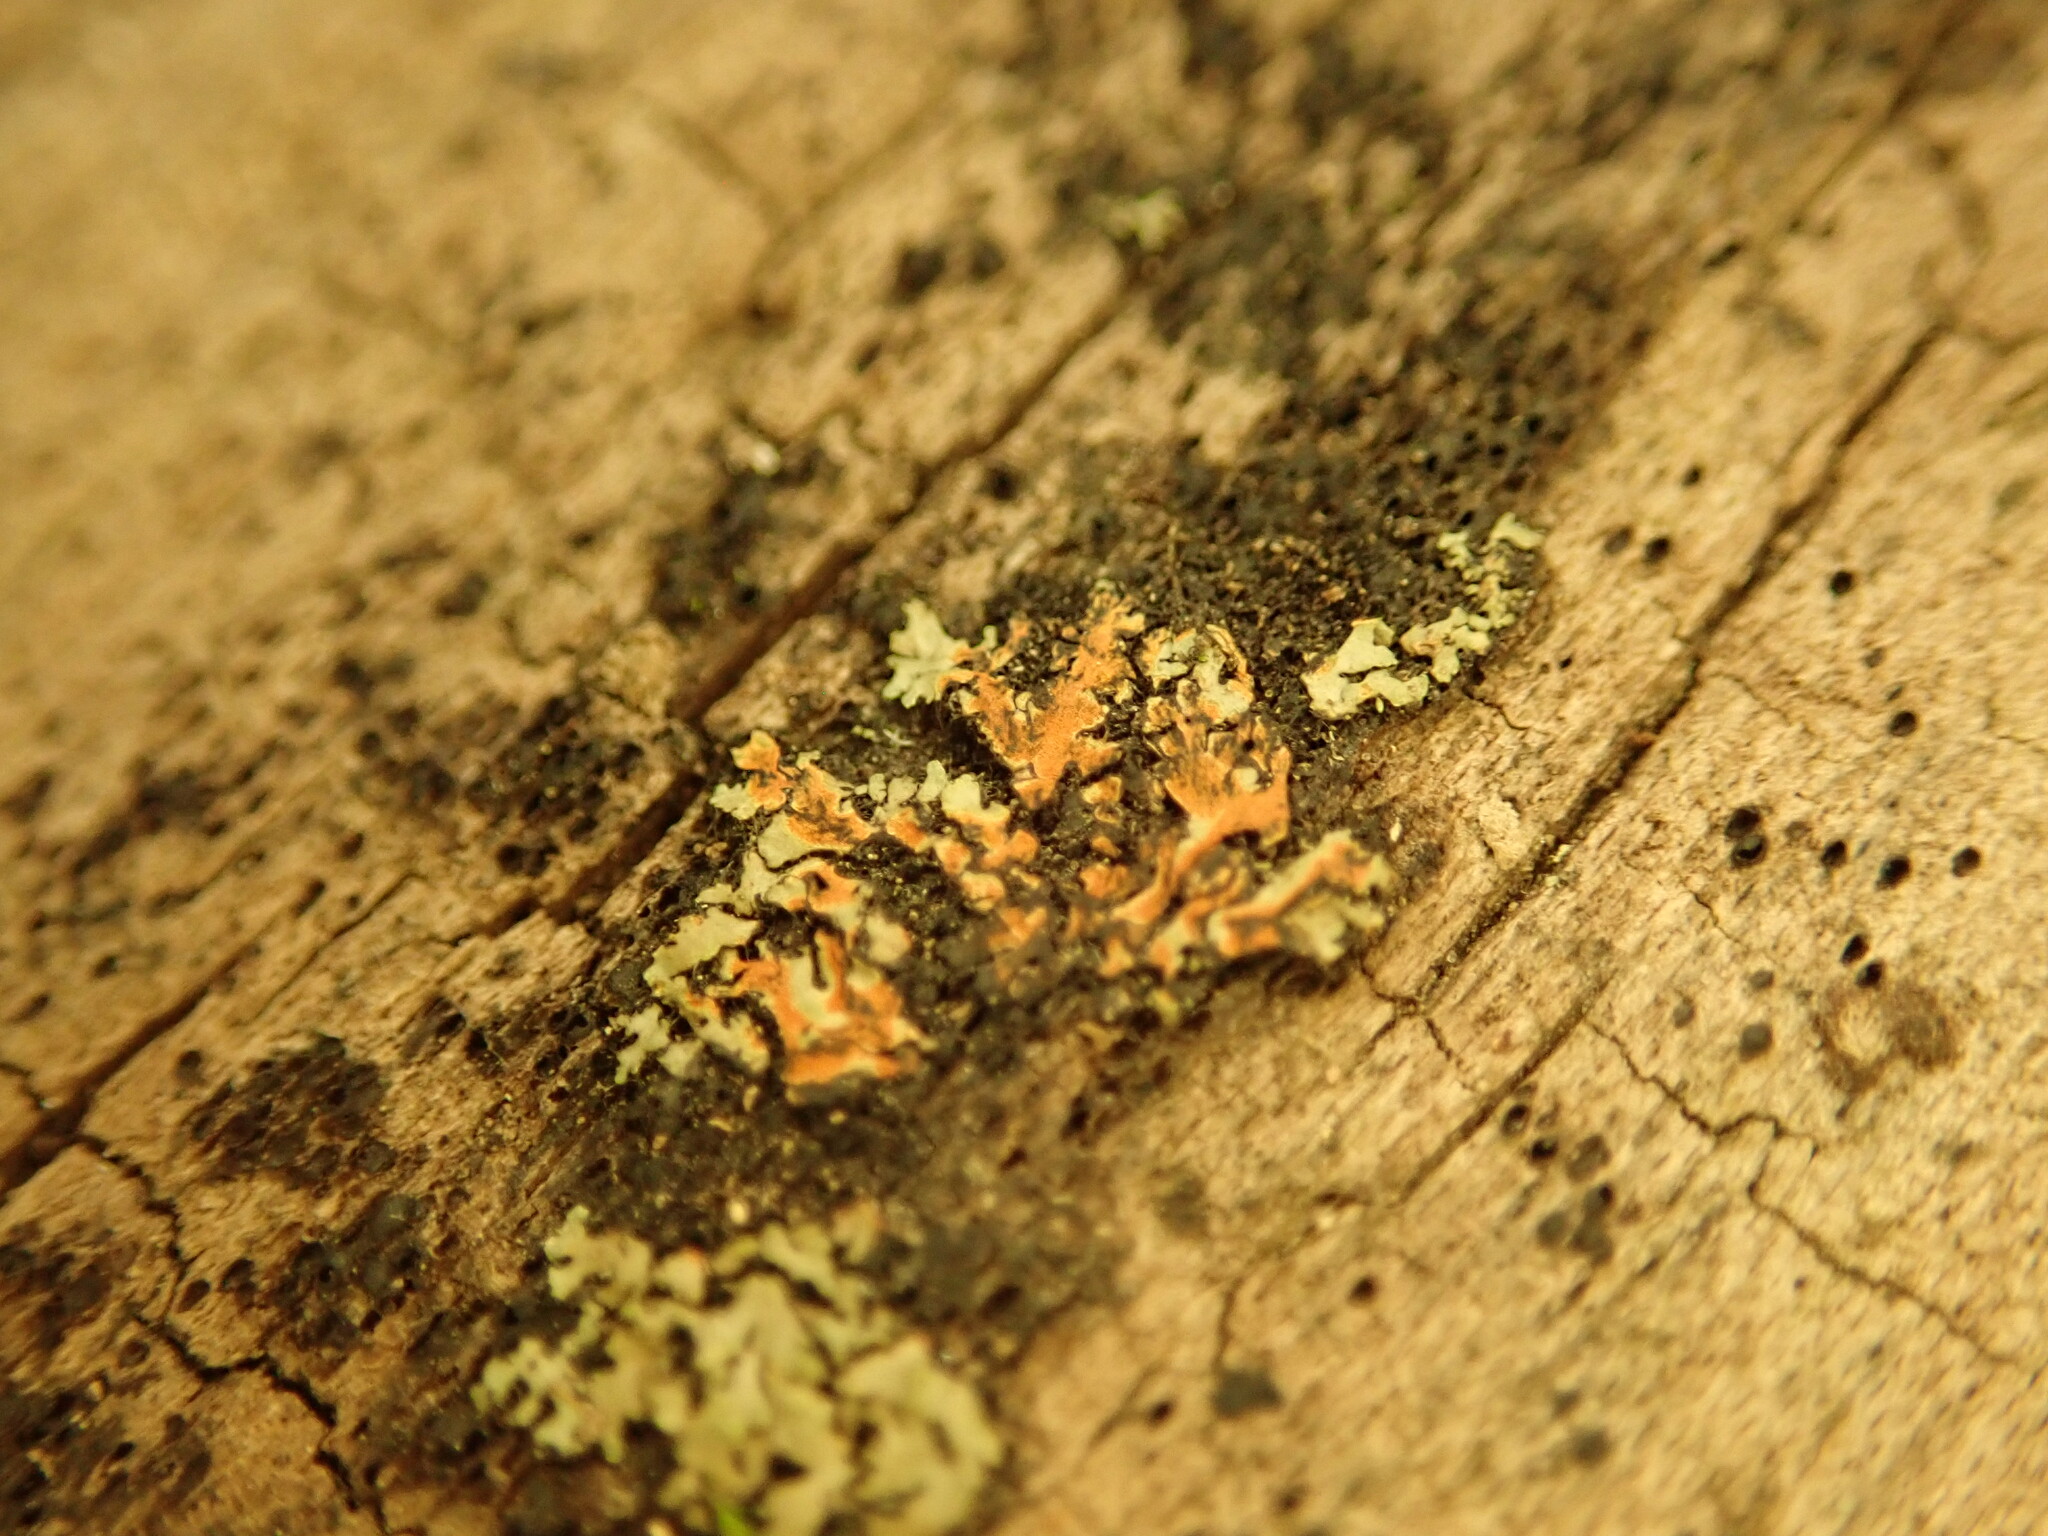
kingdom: Fungi
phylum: Ascomycota
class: Lecanoromycetes
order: Caliciales
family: Physciaceae
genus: Phaeophyscia
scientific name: Phaeophyscia rubropulchra
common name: Orange-cored shadow lichen
